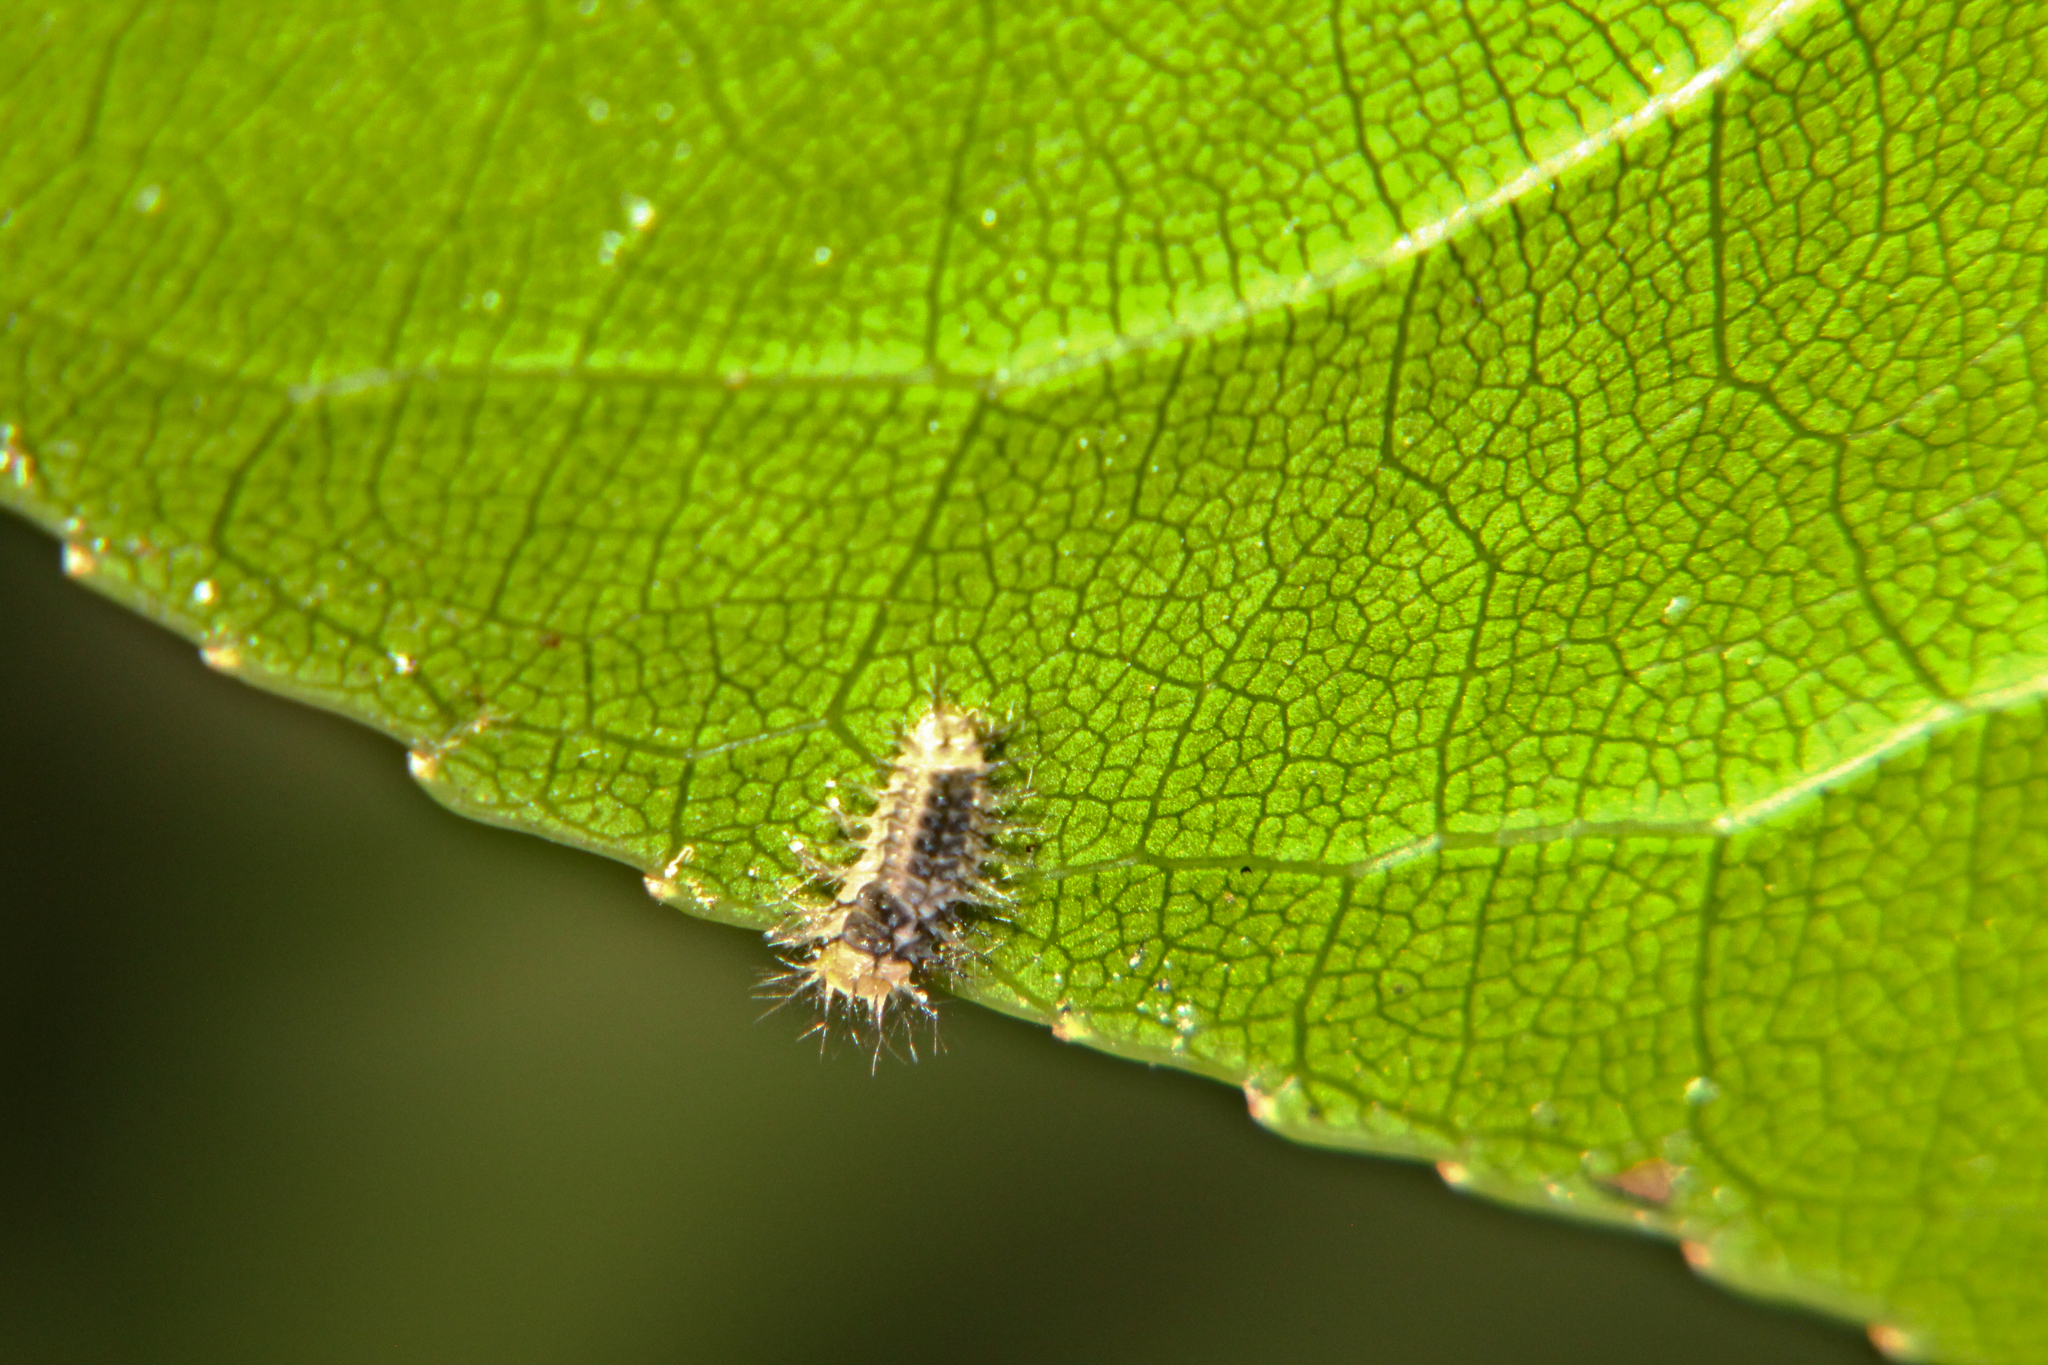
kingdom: Animalia
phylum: Arthropoda
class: Insecta
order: Coleoptera
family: Coccinellidae
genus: Halmus
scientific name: Halmus chalybeus
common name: Steel blue ladybird beetle
